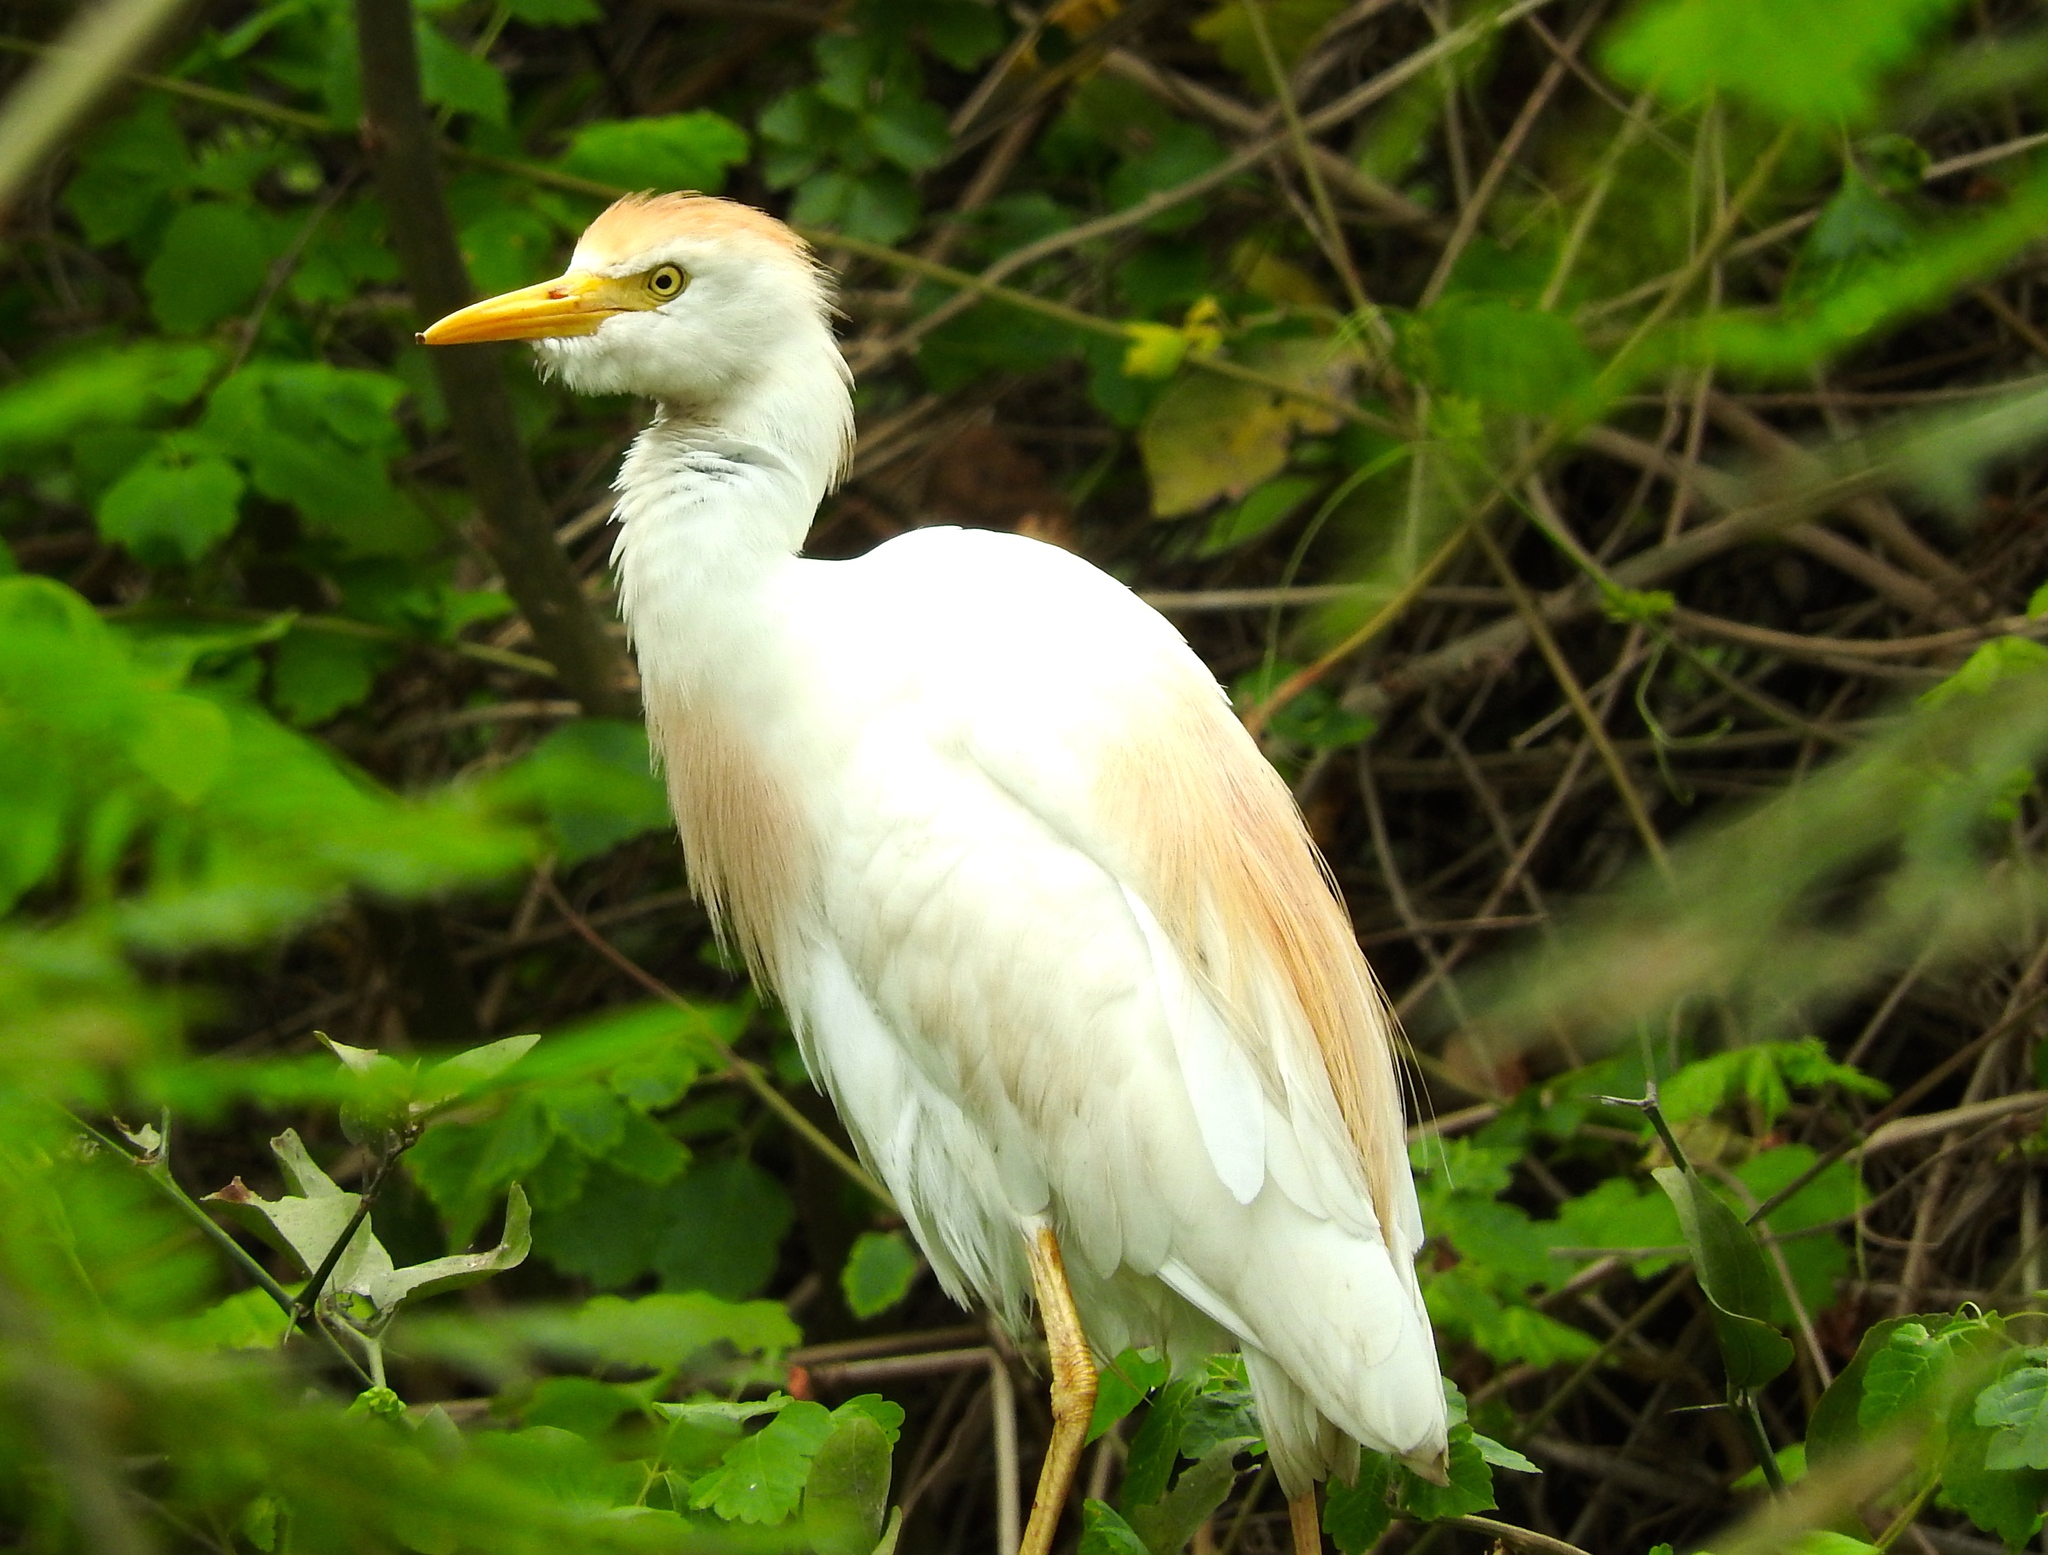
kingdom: Animalia
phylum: Chordata
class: Aves
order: Pelecaniformes
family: Ardeidae
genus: Bubulcus
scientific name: Bubulcus ibis
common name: Cattle egret
